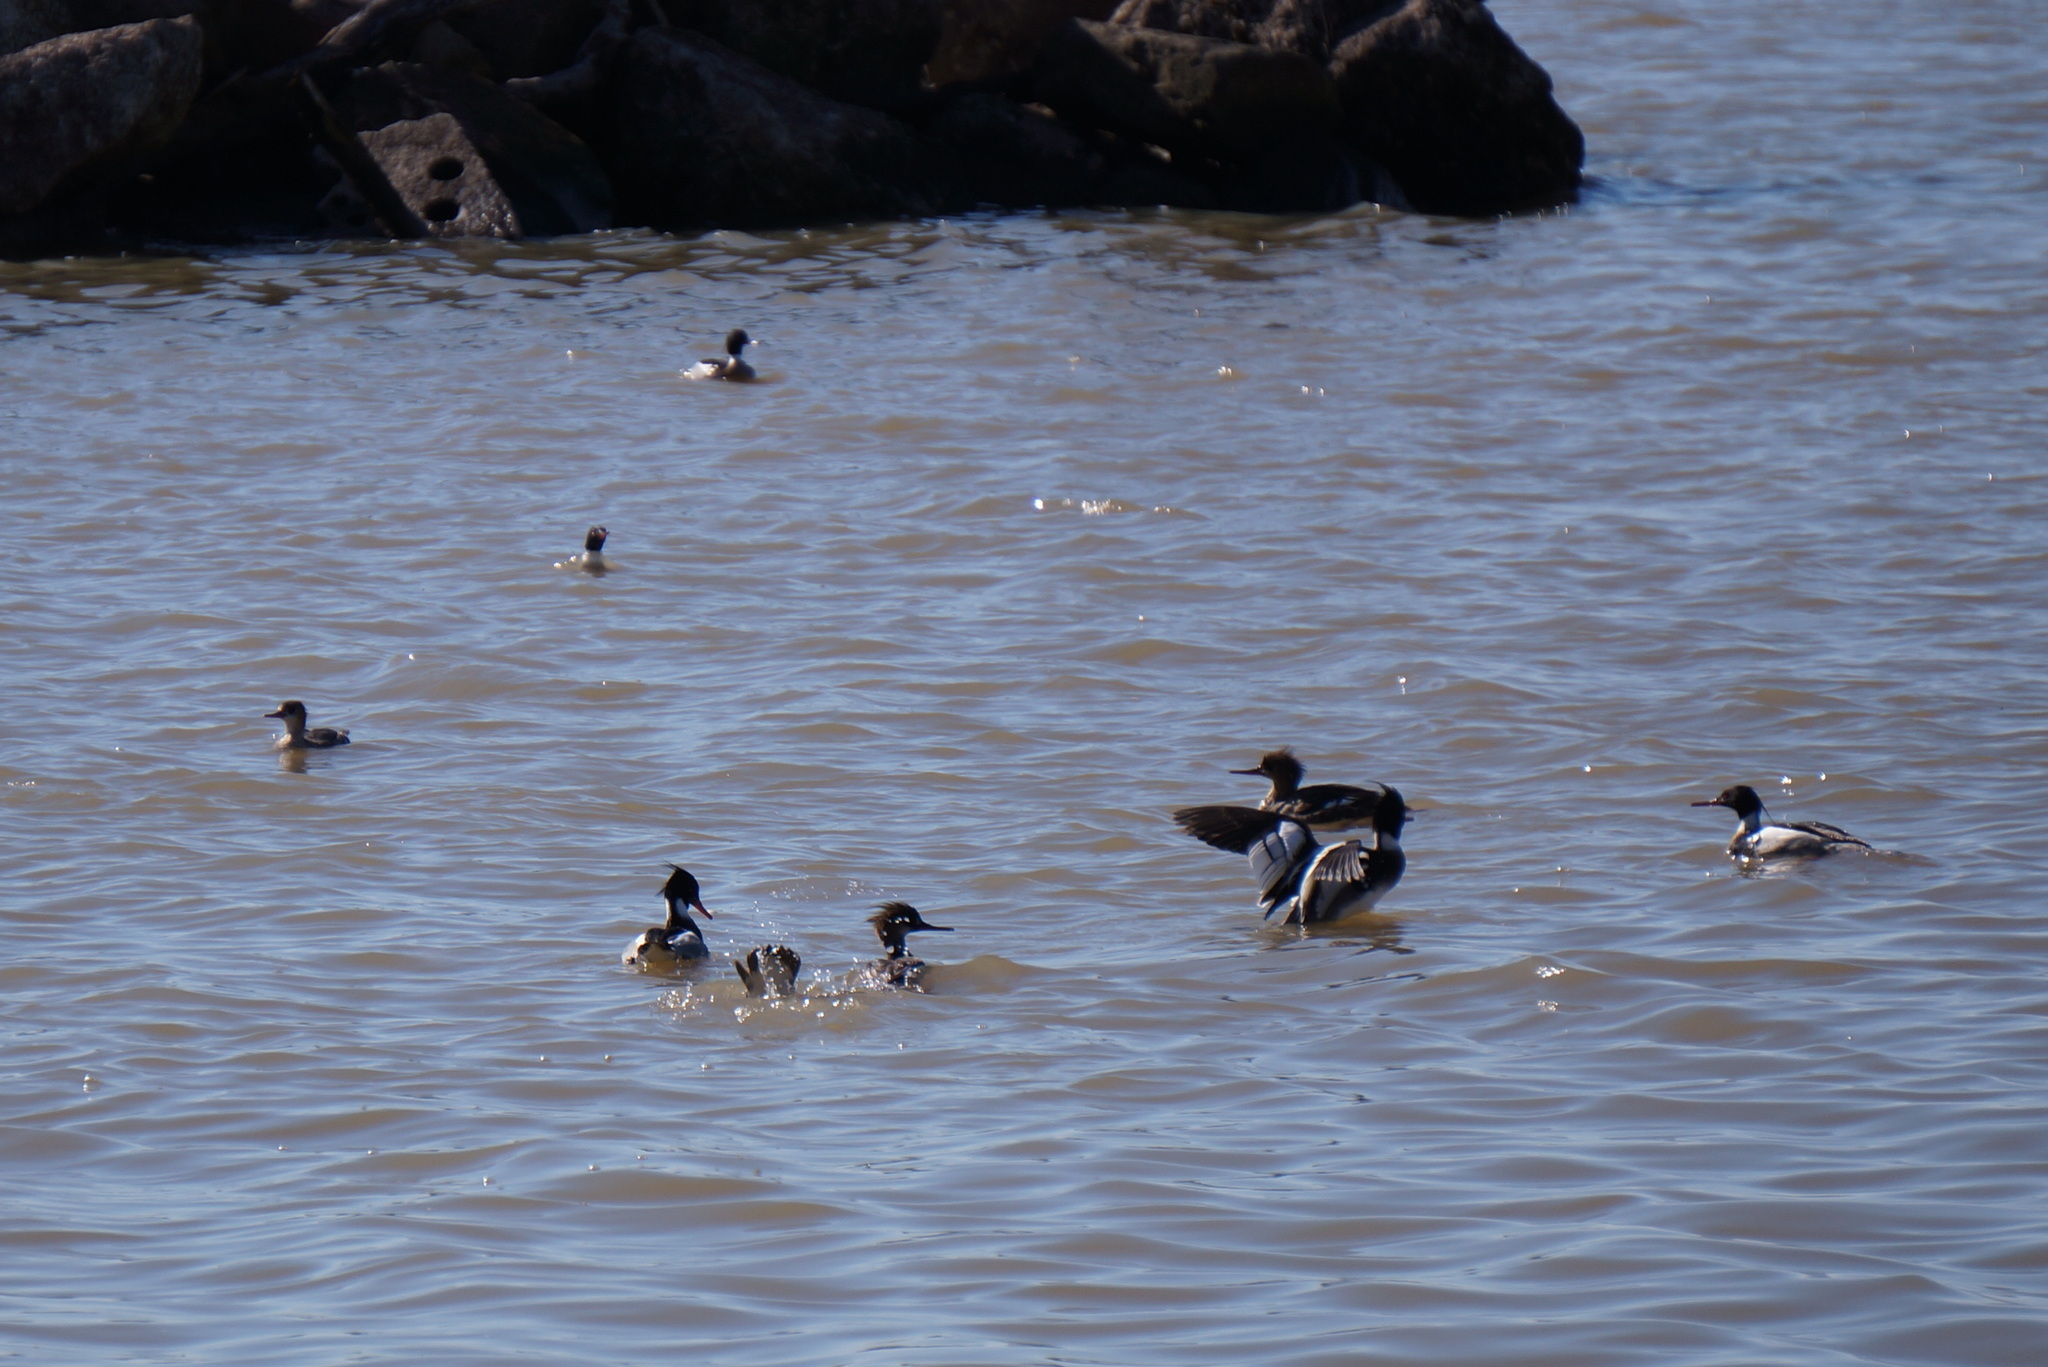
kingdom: Animalia
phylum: Chordata
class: Aves
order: Anseriformes
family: Anatidae
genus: Mergus
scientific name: Mergus serrator
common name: Red-breasted merganser
